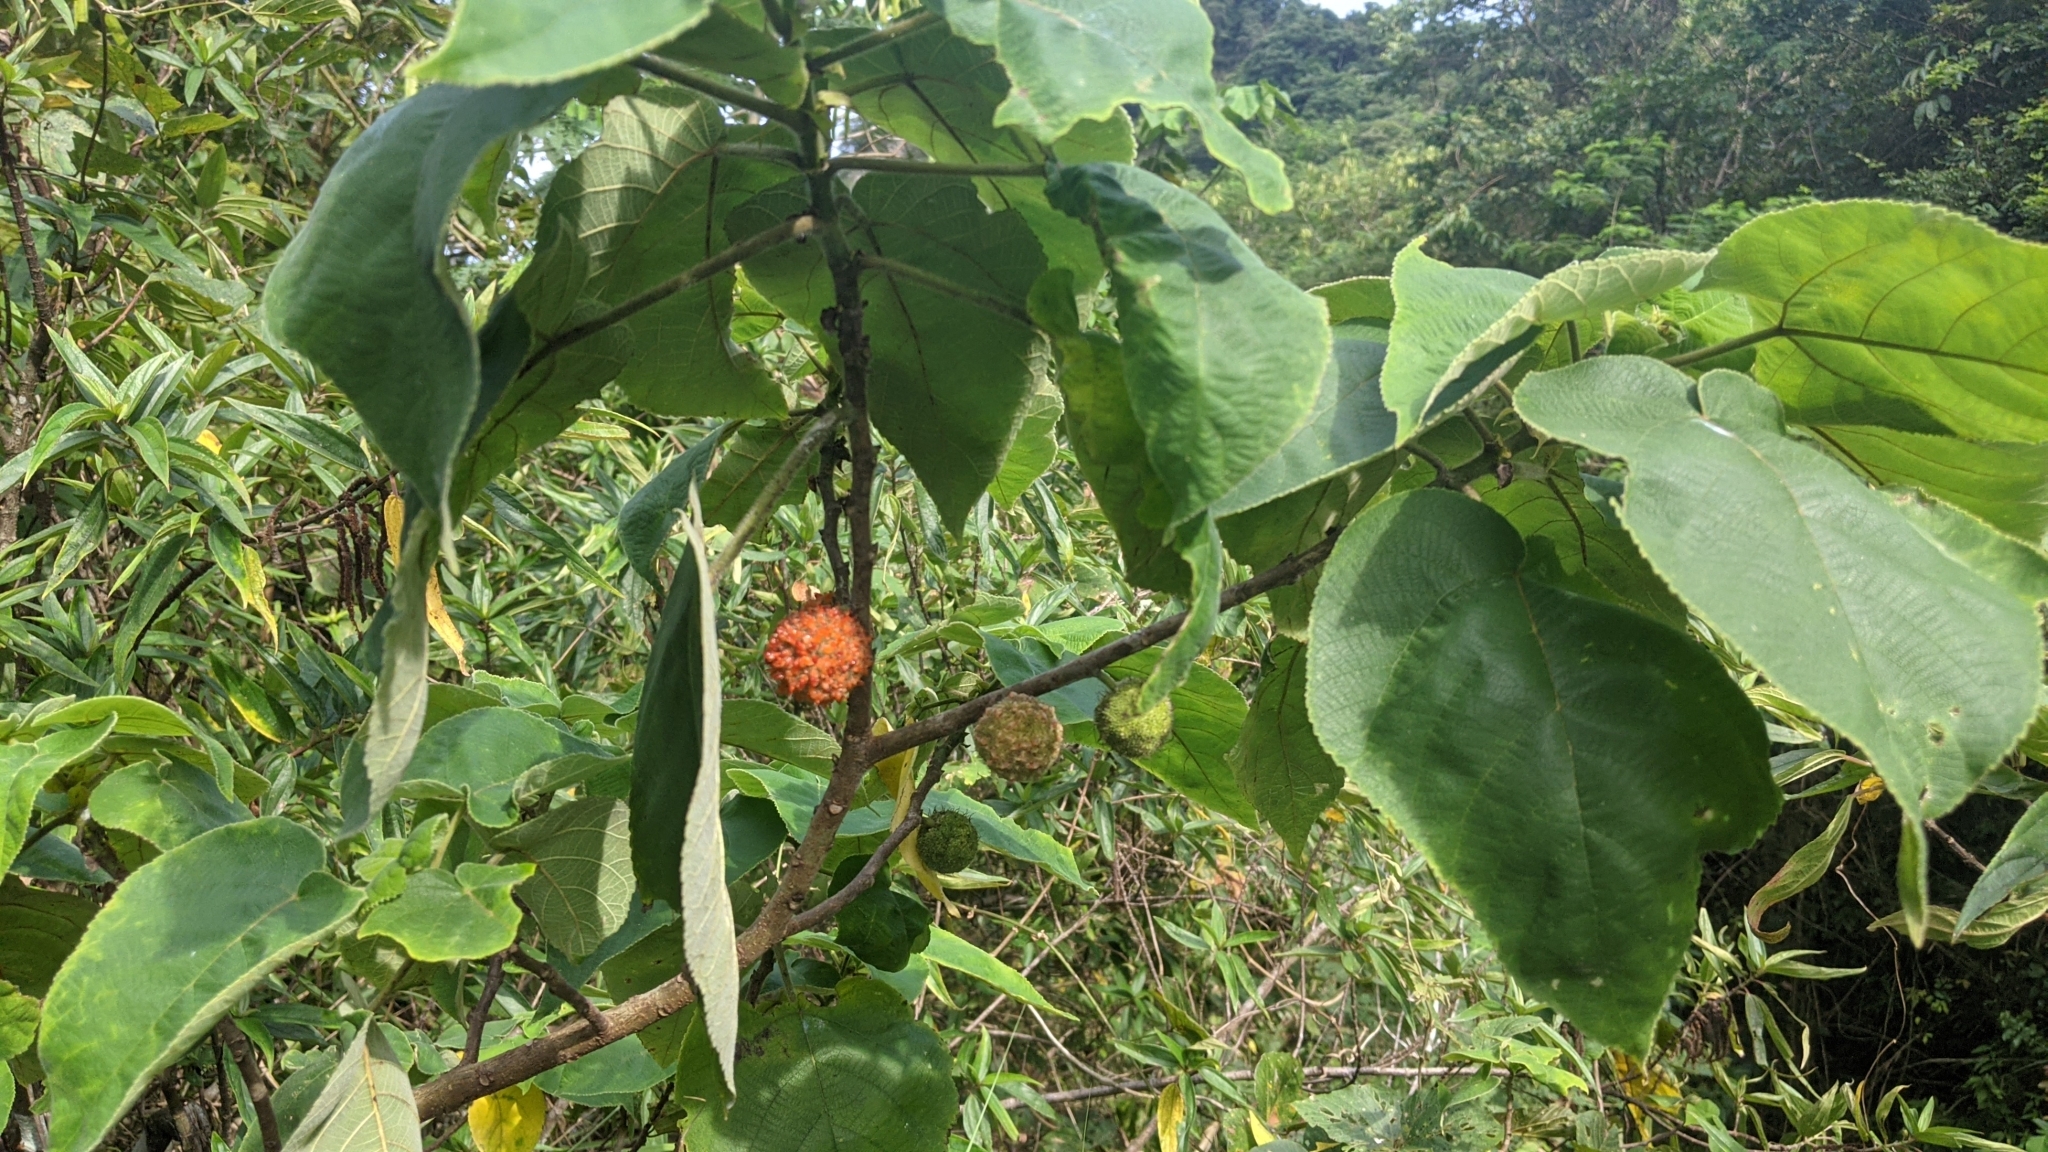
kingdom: Plantae
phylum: Tracheophyta
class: Magnoliopsida
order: Rosales
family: Moraceae
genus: Broussonetia
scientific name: Broussonetia papyrifera
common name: Paper mulberry
